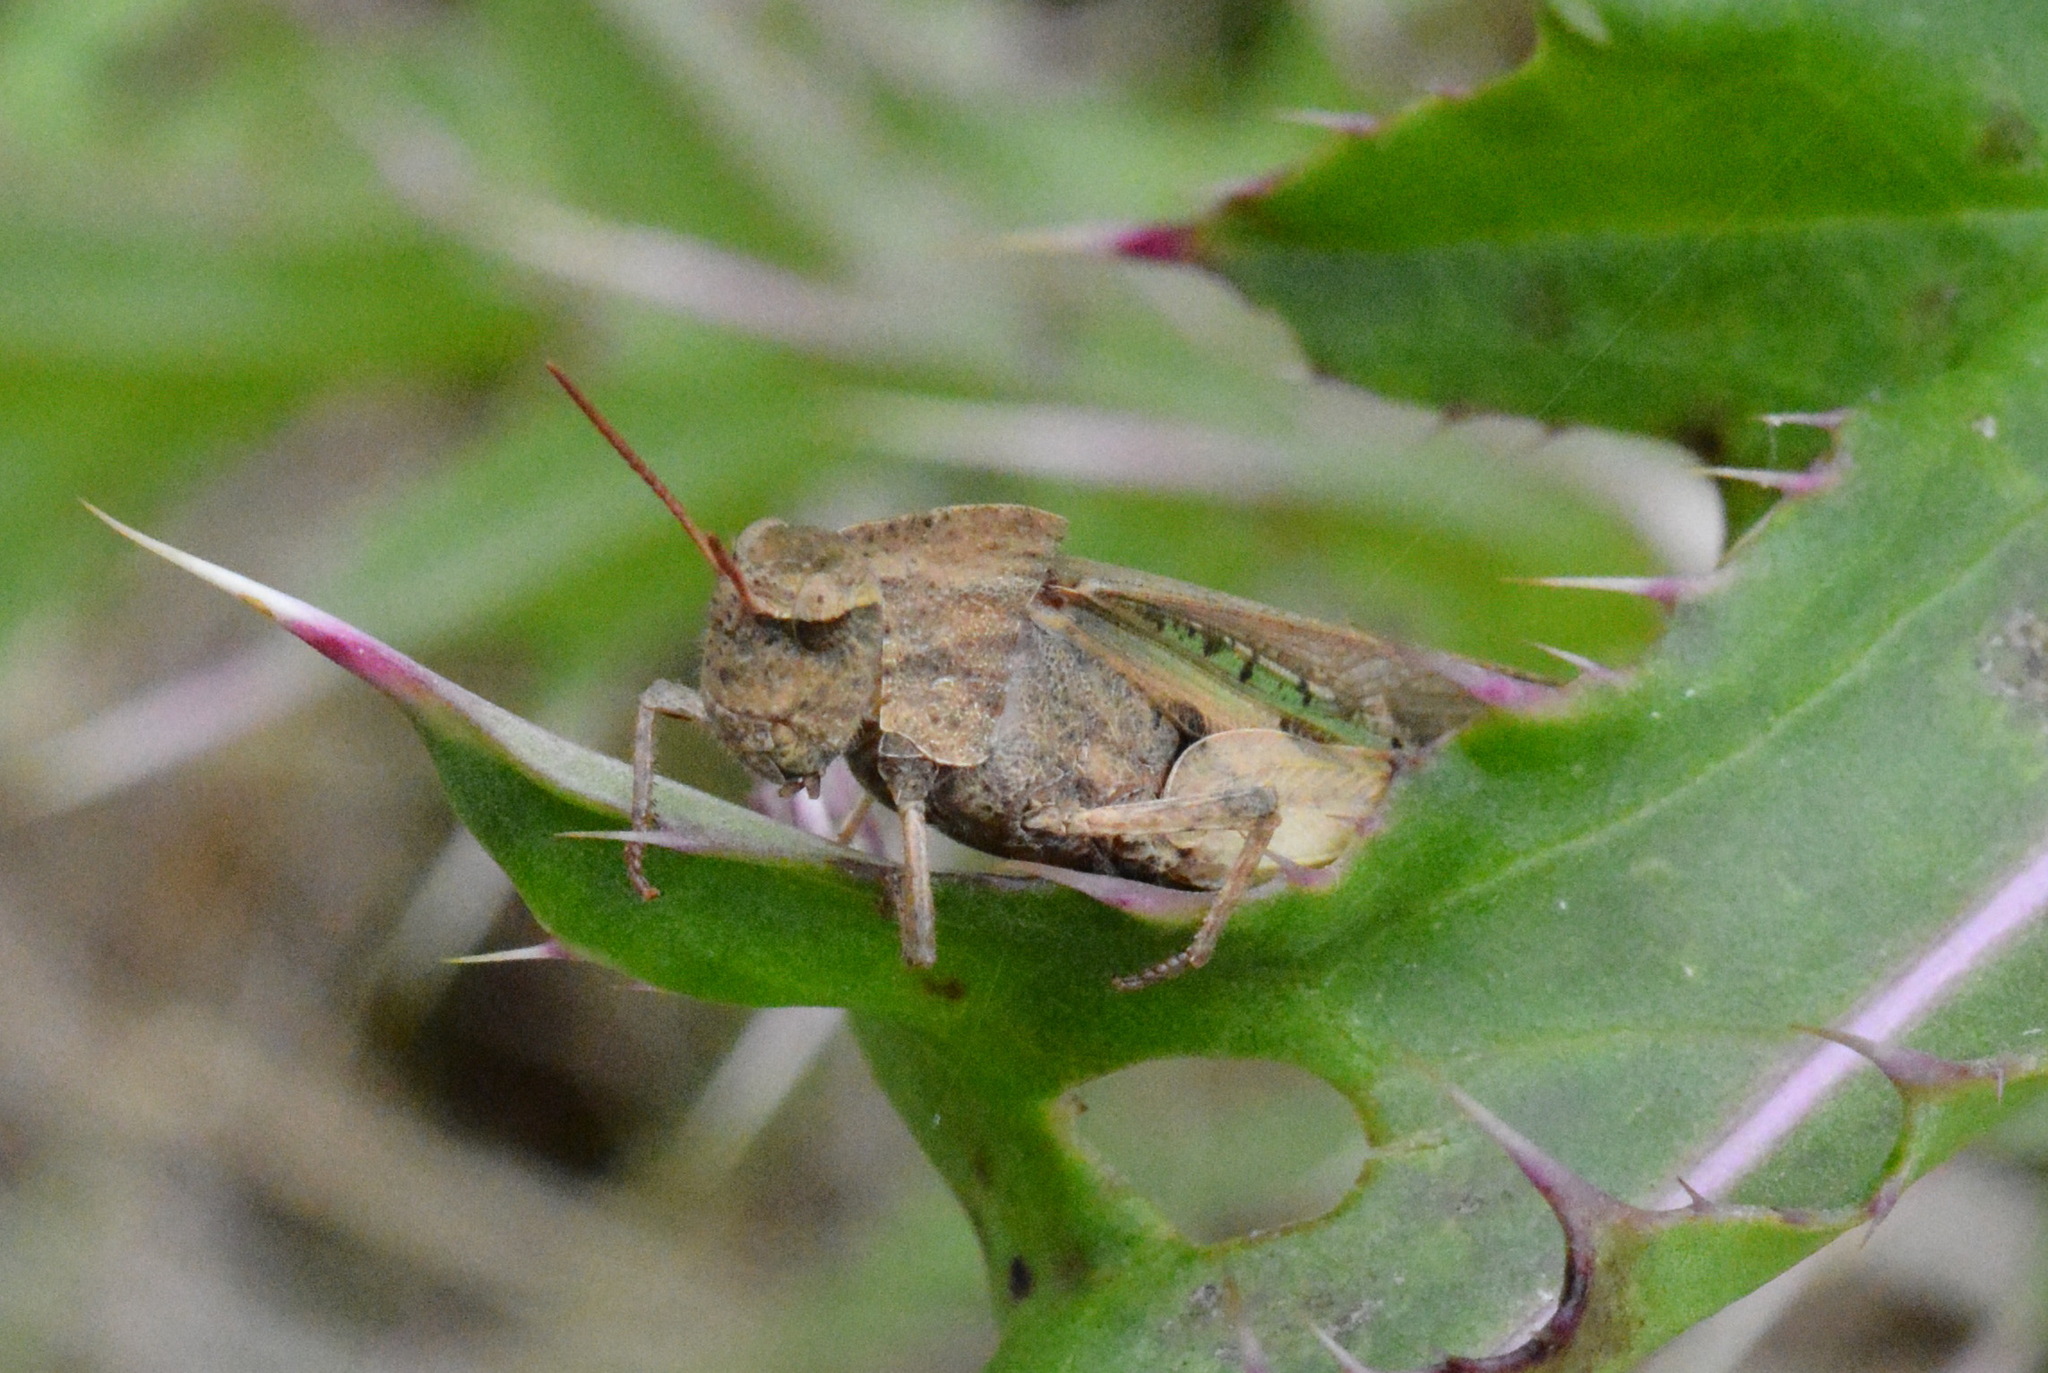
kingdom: Animalia
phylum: Arthropoda
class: Insecta
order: Orthoptera
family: Acrididae
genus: Chortophaga
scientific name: Chortophaga viridifasciata
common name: Green-striped grasshopper
